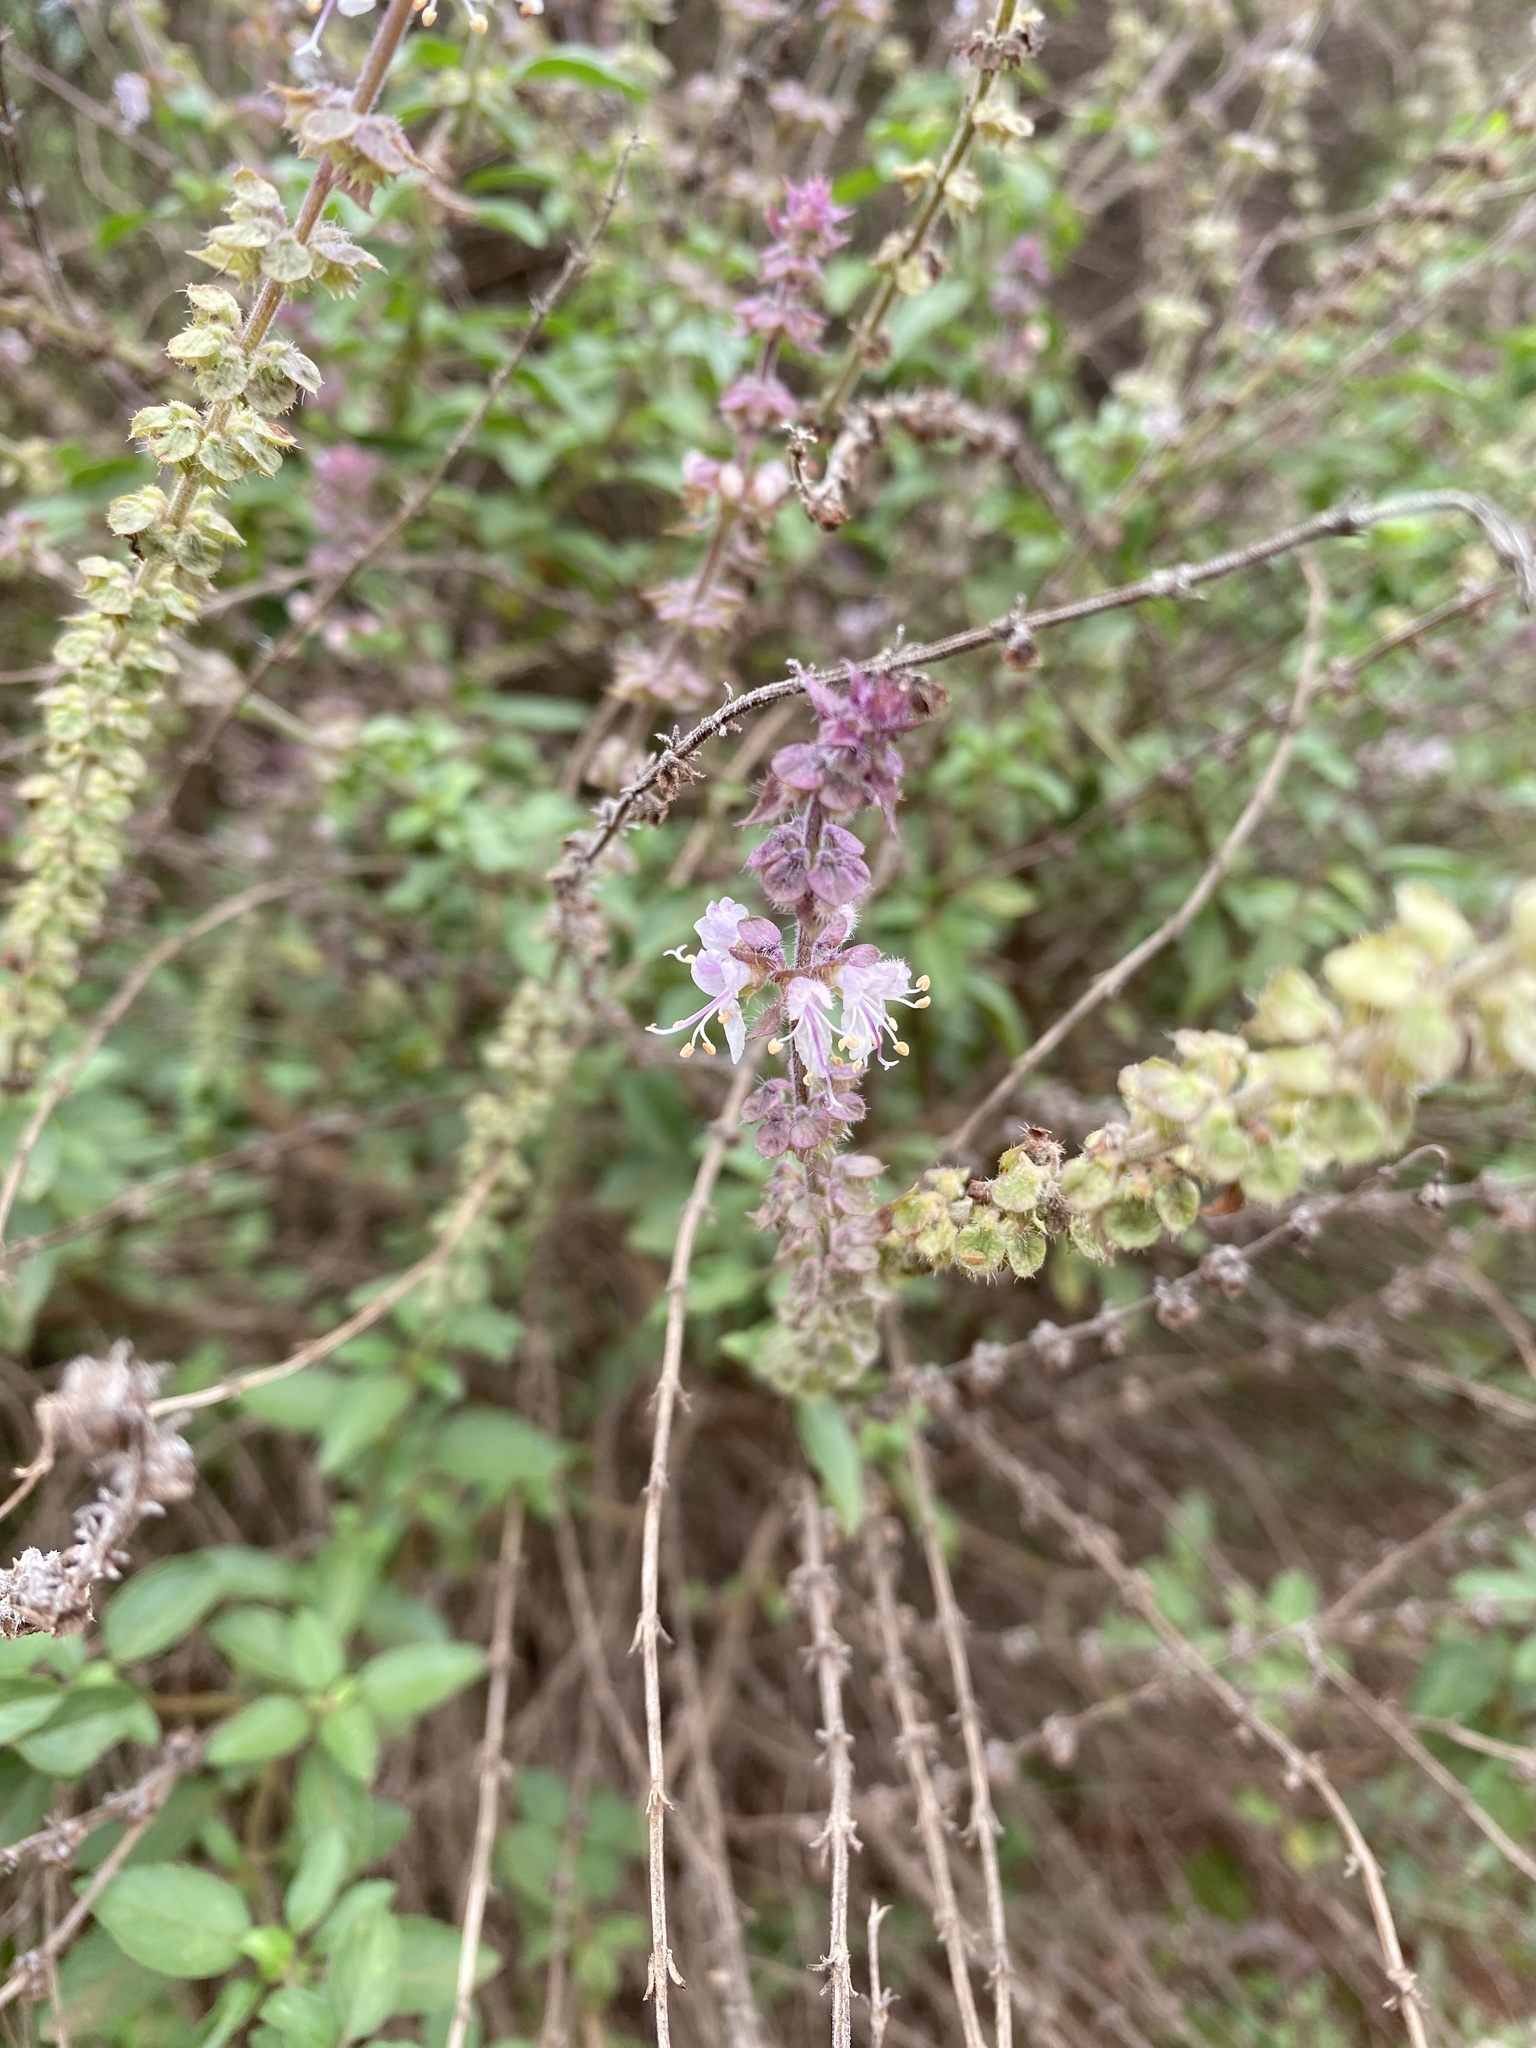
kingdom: Plantae
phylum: Tracheophyta
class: Magnoliopsida
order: Lamiales
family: Lamiaceae
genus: Ocimum
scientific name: Ocimum americanum
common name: American basil
